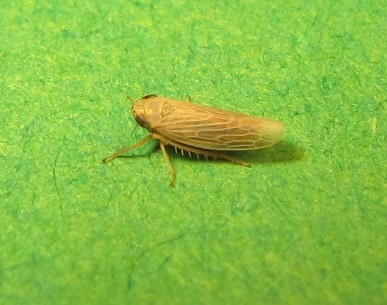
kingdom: Animalia
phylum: Arthropoda
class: Insecta
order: Hemiptera
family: Cicadellidae
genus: Graminella
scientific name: Graminella plana
